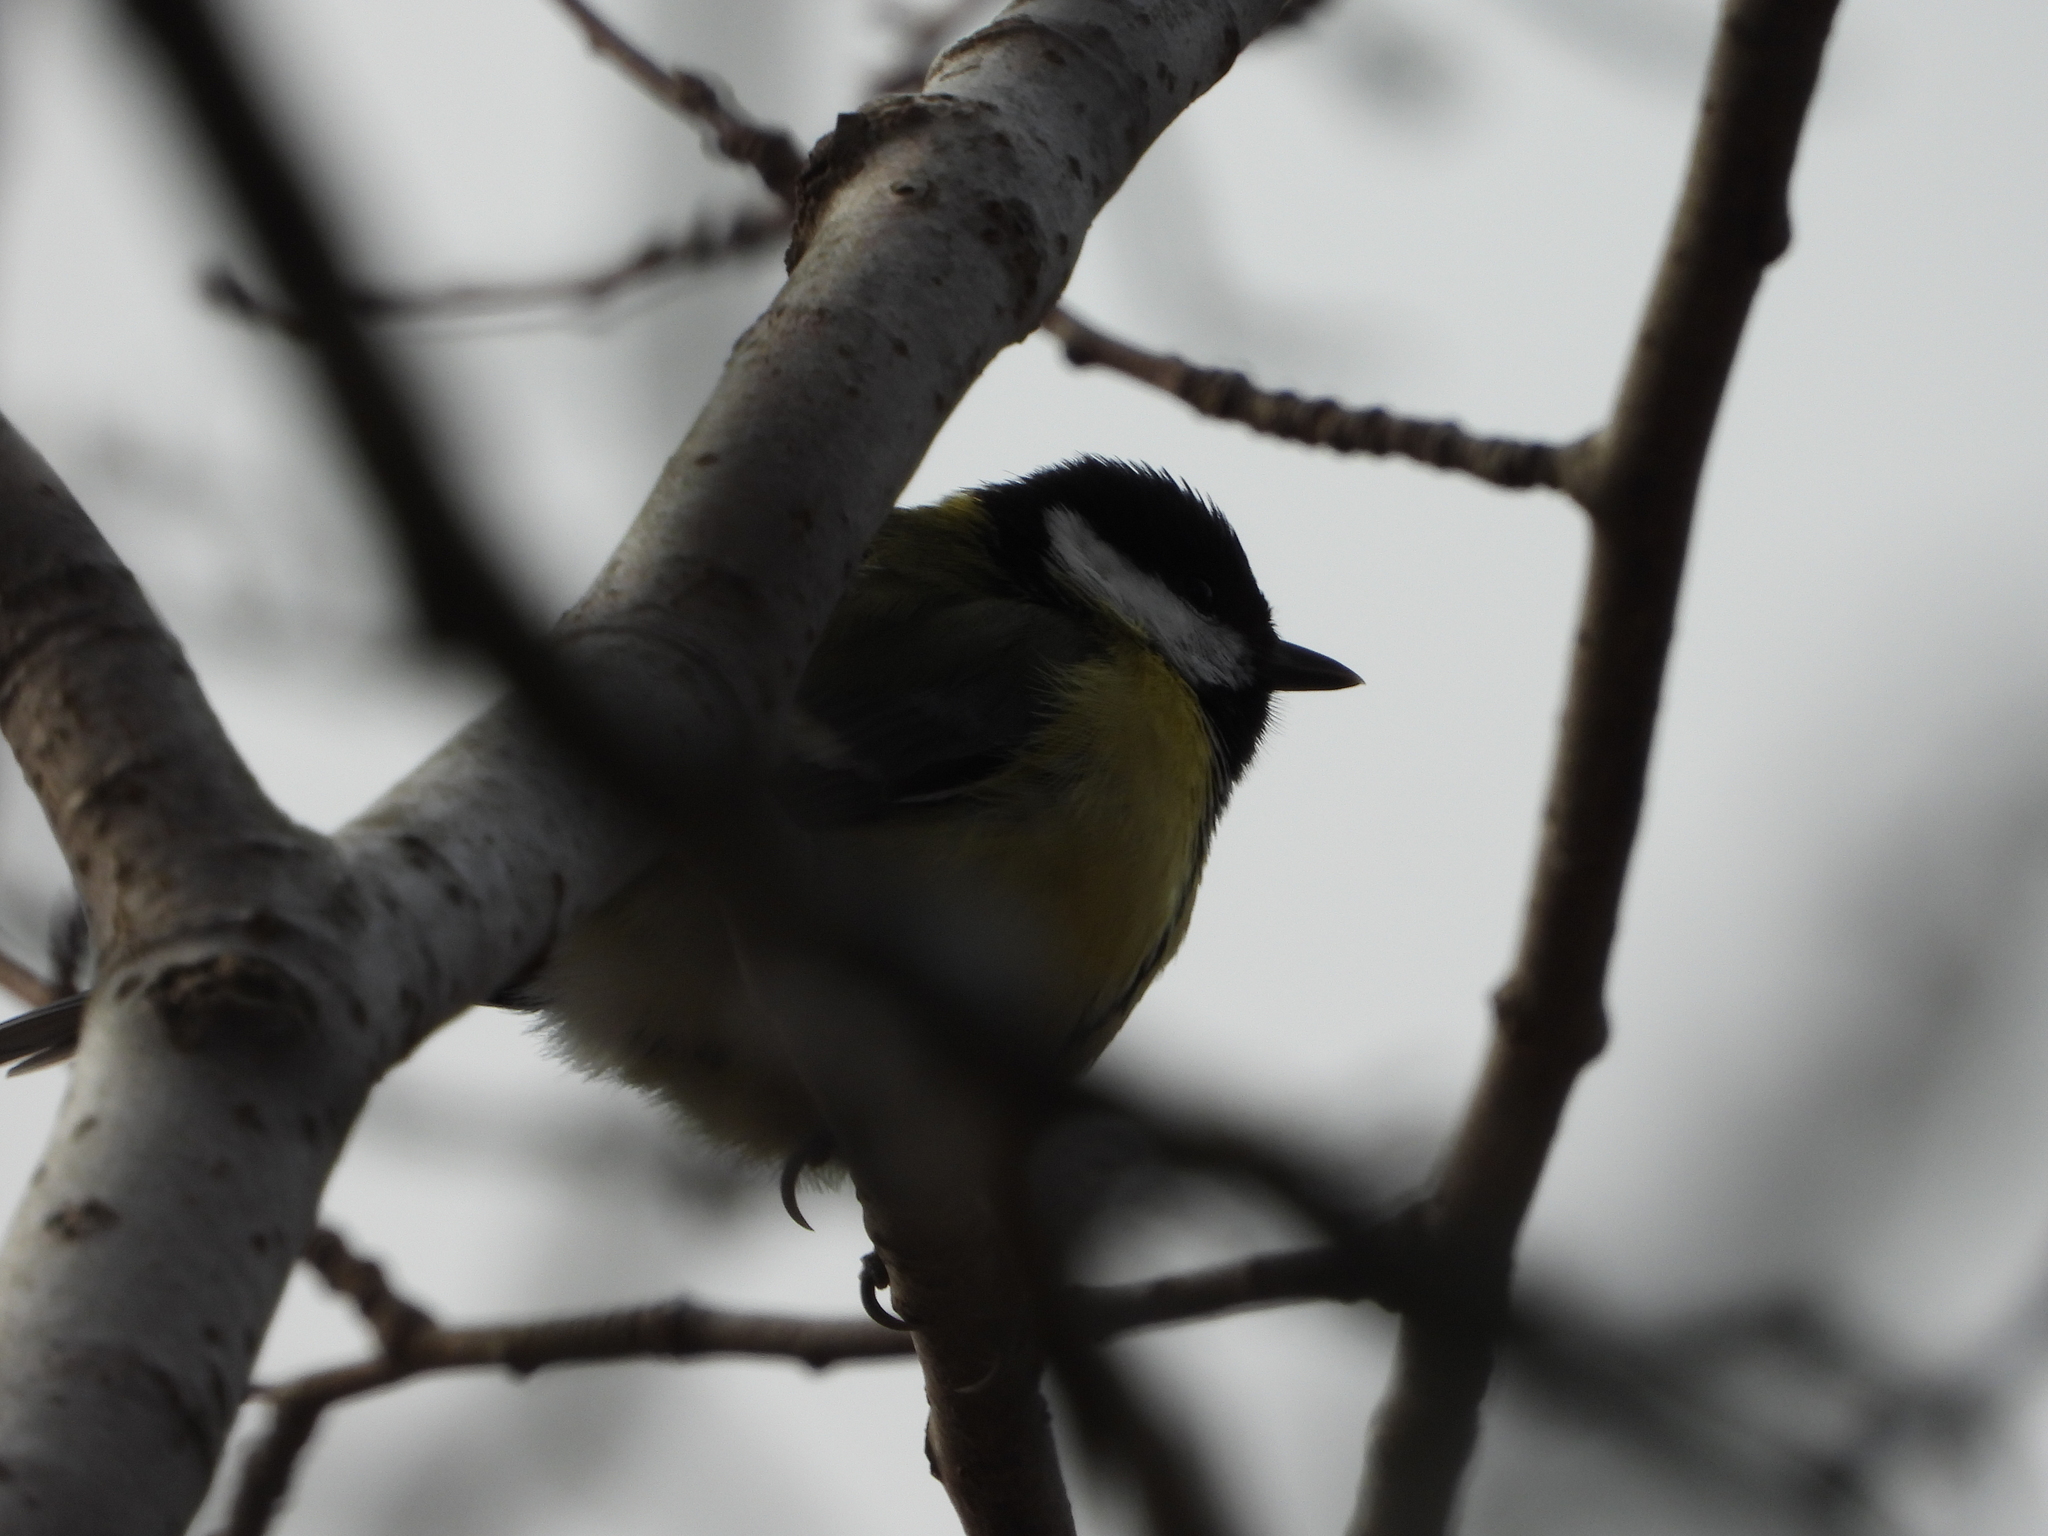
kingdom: Animalia
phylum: Chordata
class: Aves
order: Passeriformes
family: Paridae
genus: Parus
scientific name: Parus major
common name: Great tit
